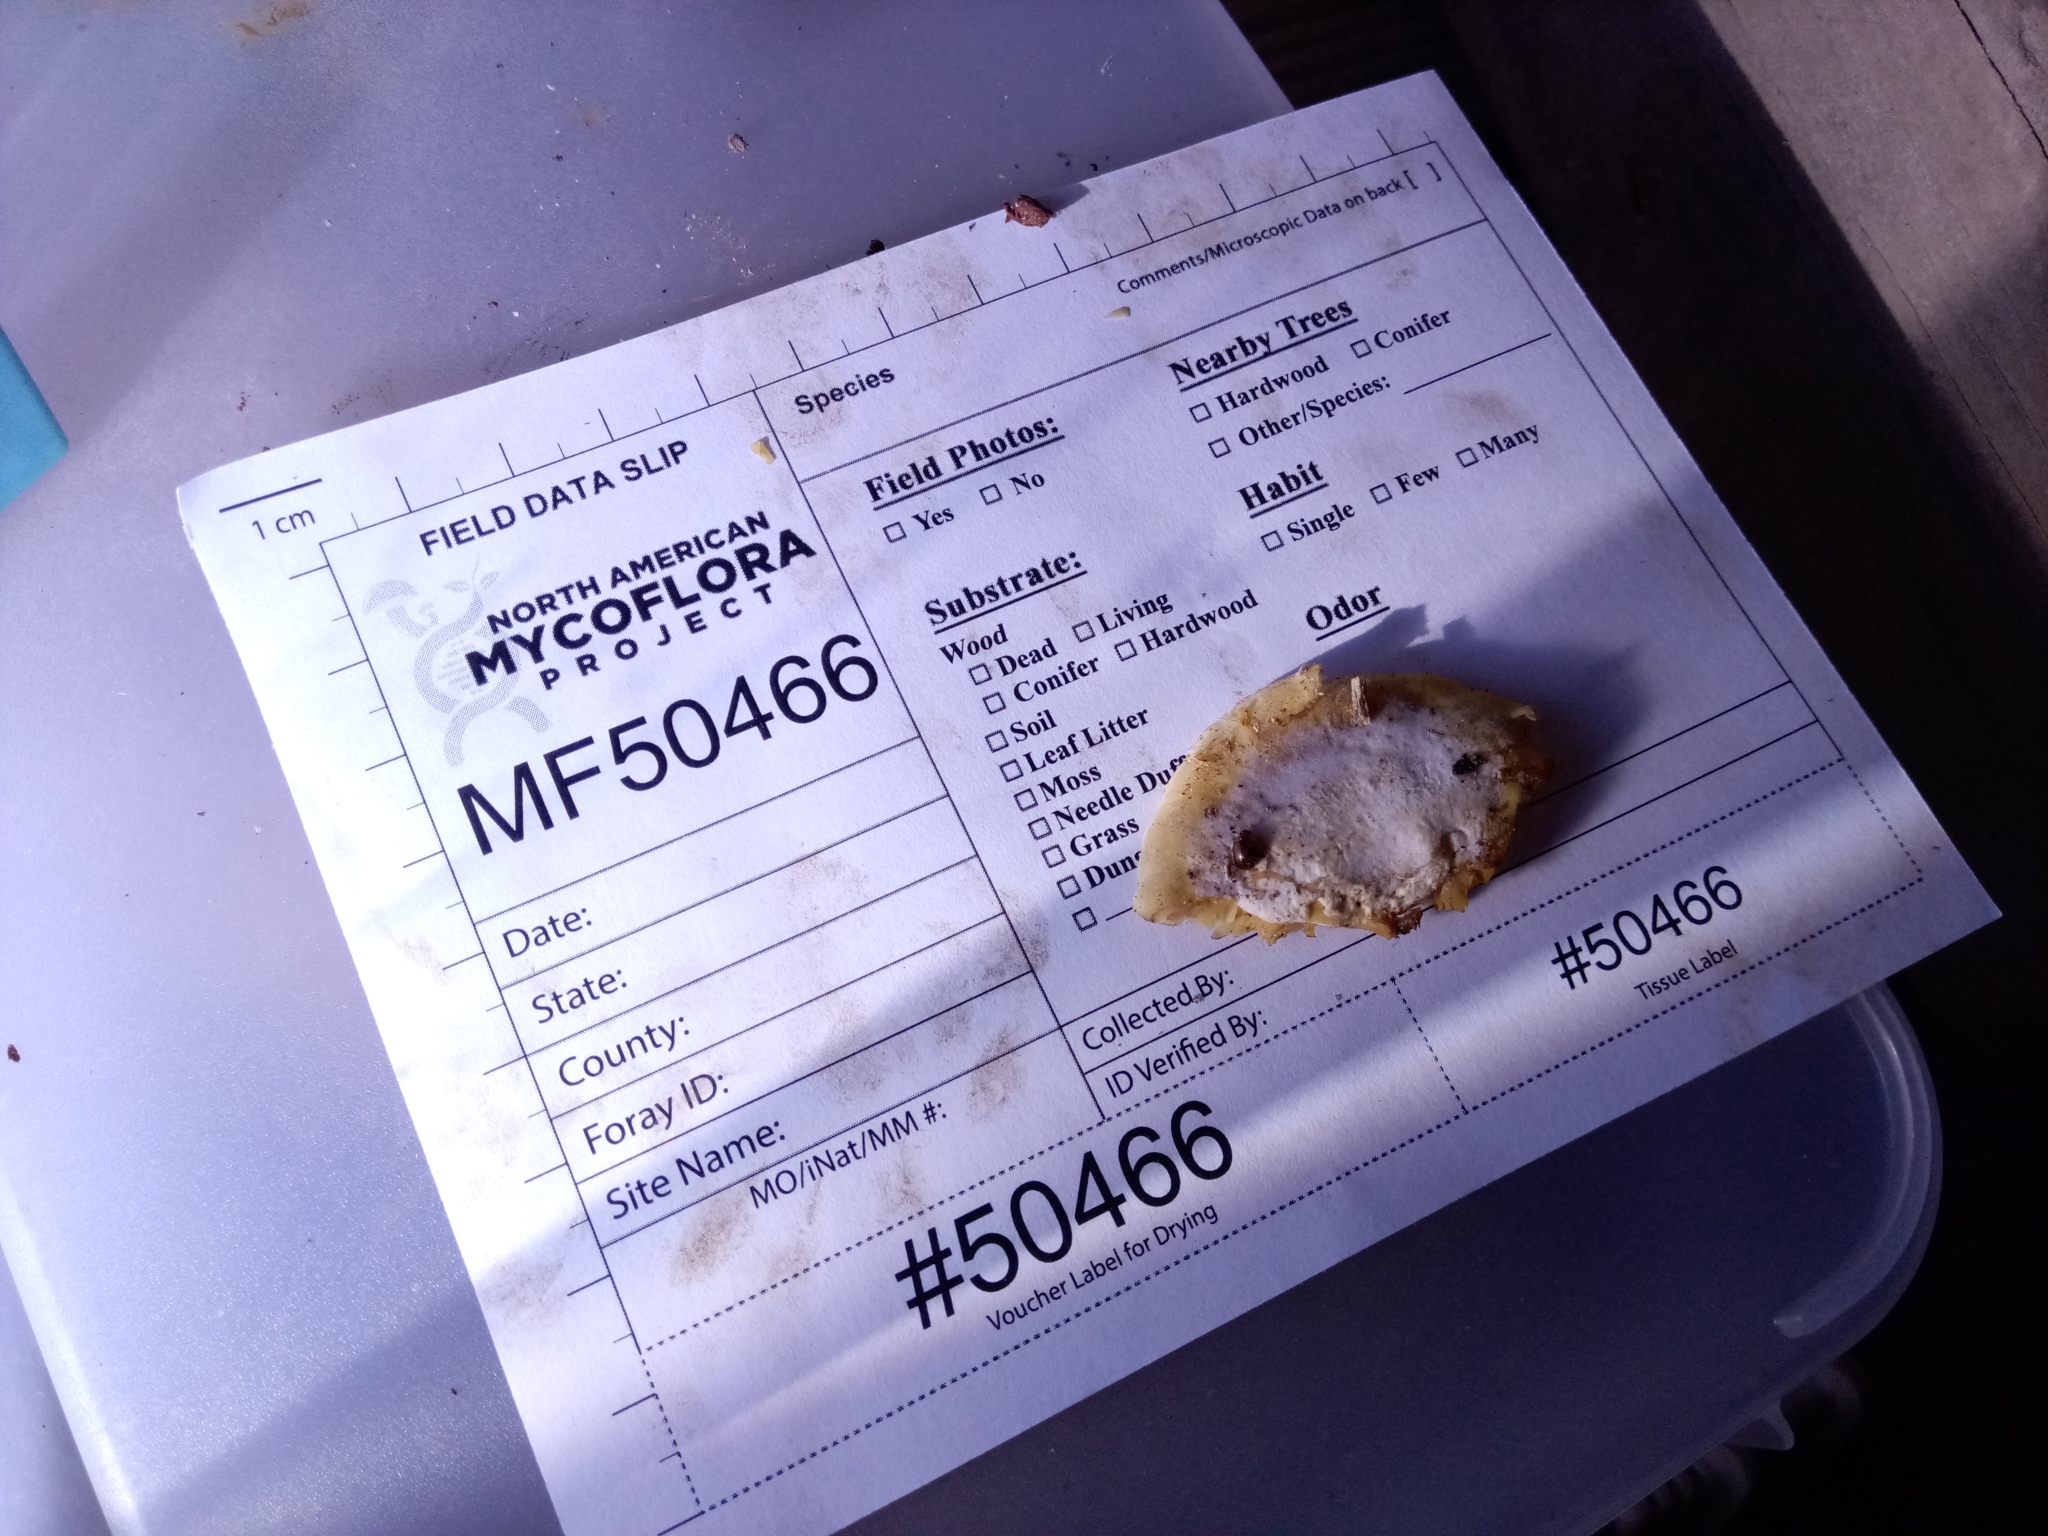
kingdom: Fungi
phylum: Basidiomycota
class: Agaricomycetes
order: Agaricales
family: Crepidotaceae
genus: Crepidotus
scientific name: Crepidotus croceotinctus
